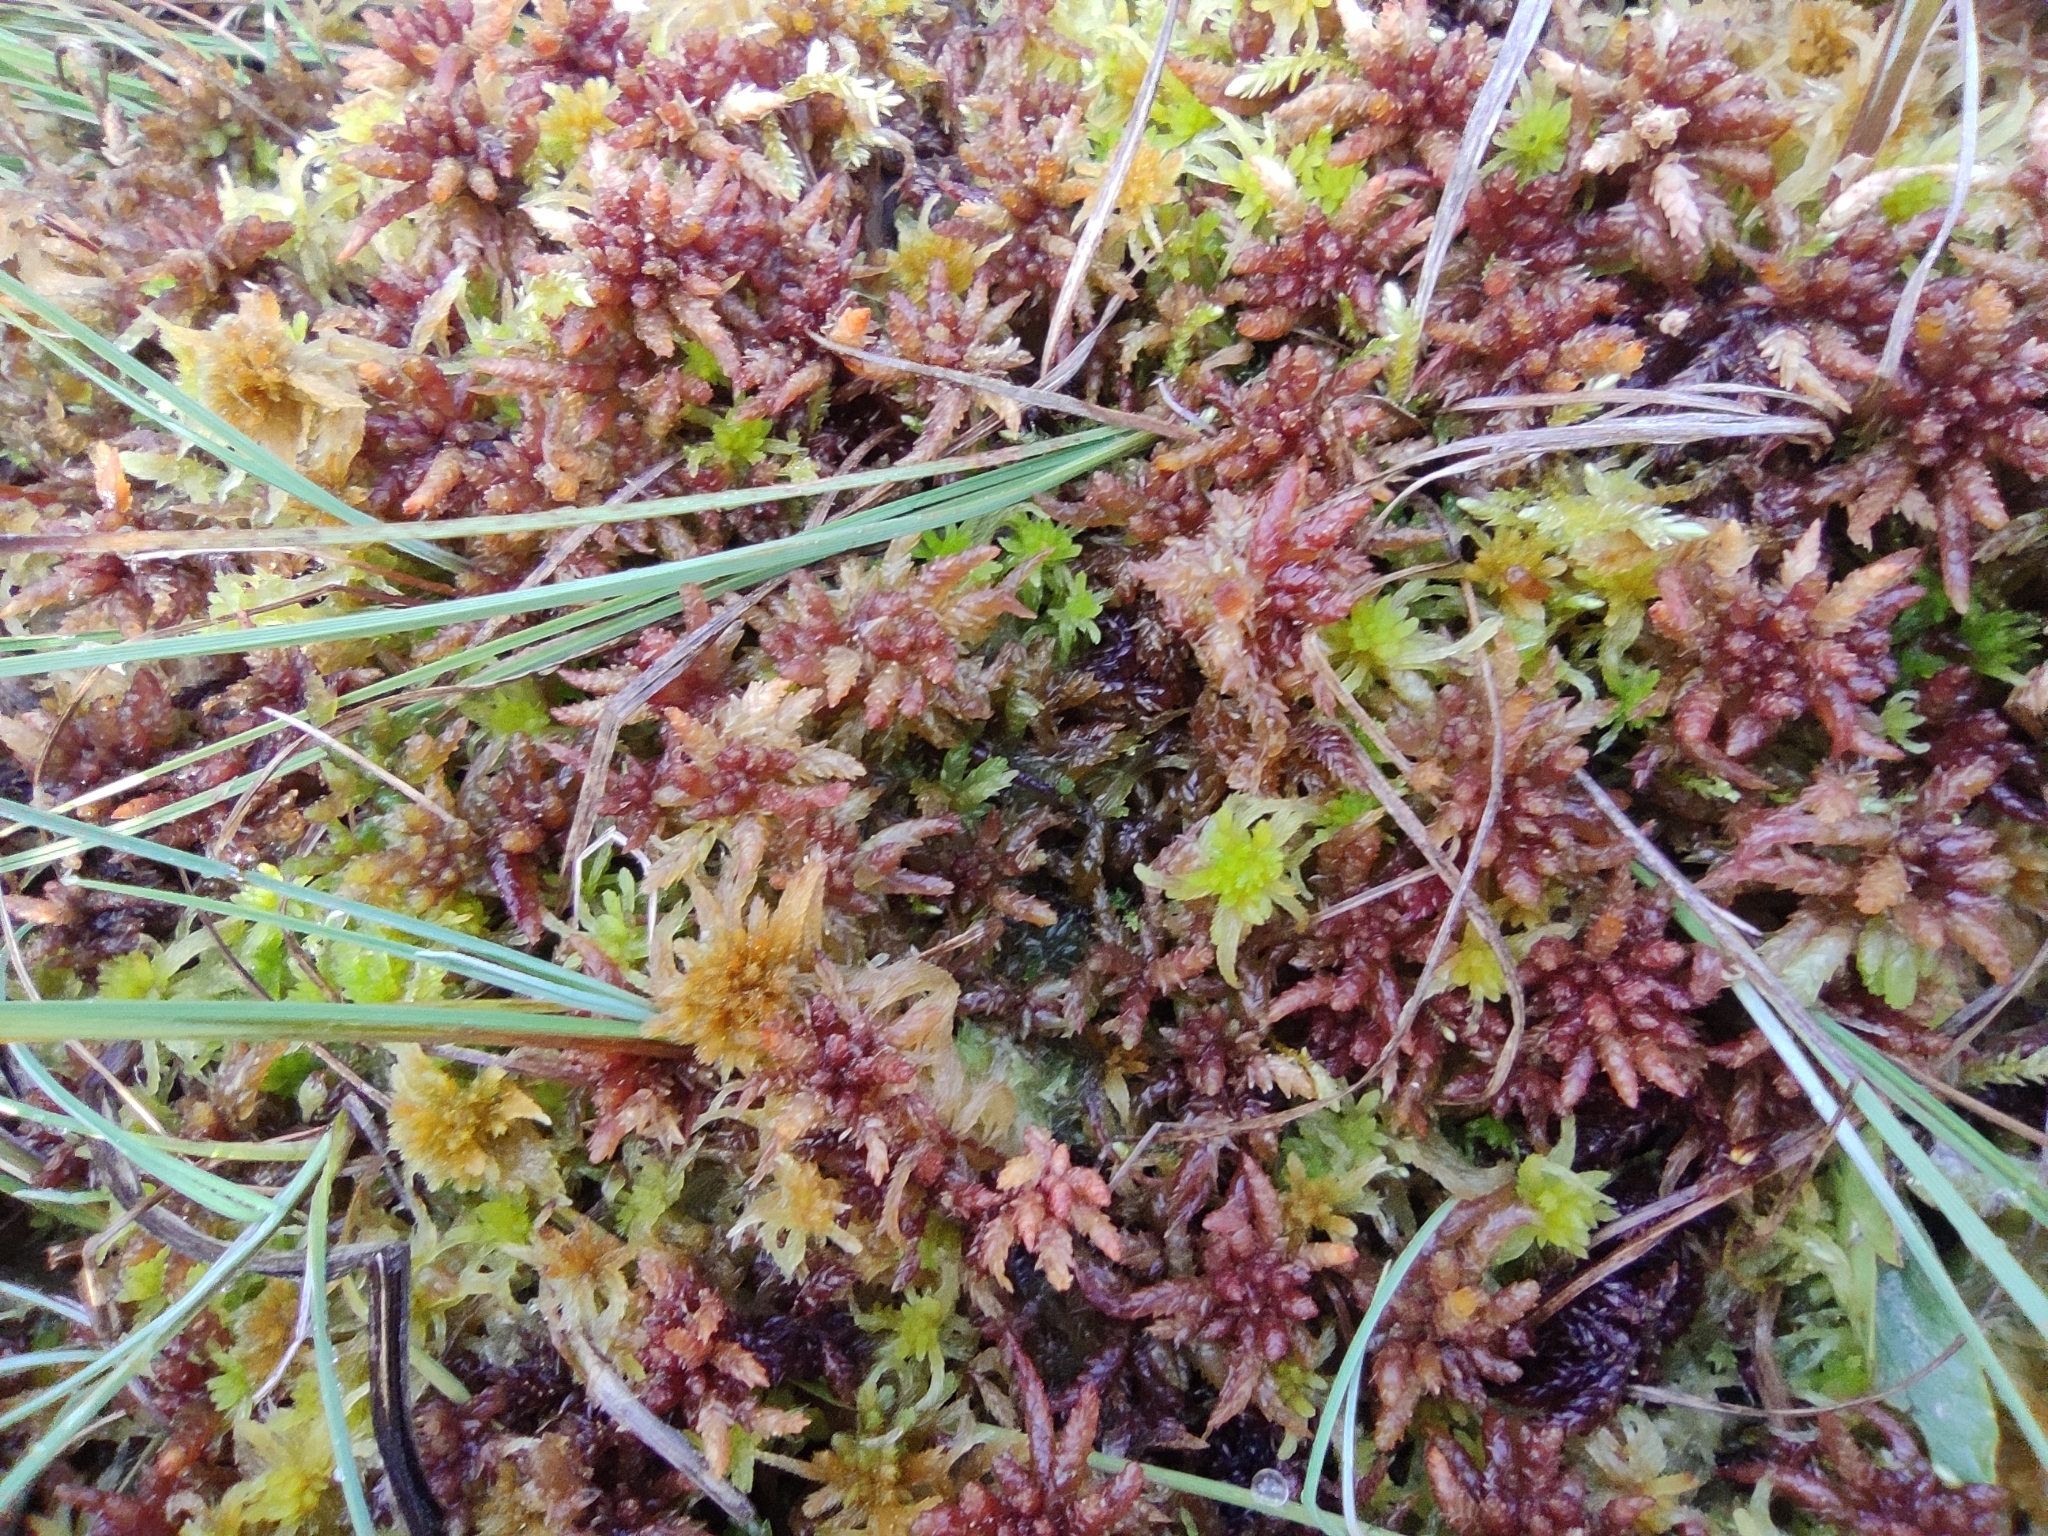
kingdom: Plantae
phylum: Bryophyta
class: Sphagnopsida
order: Sphagnales
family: Sphagnaceae
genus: Sphagnum
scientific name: Sphagnum divinum
